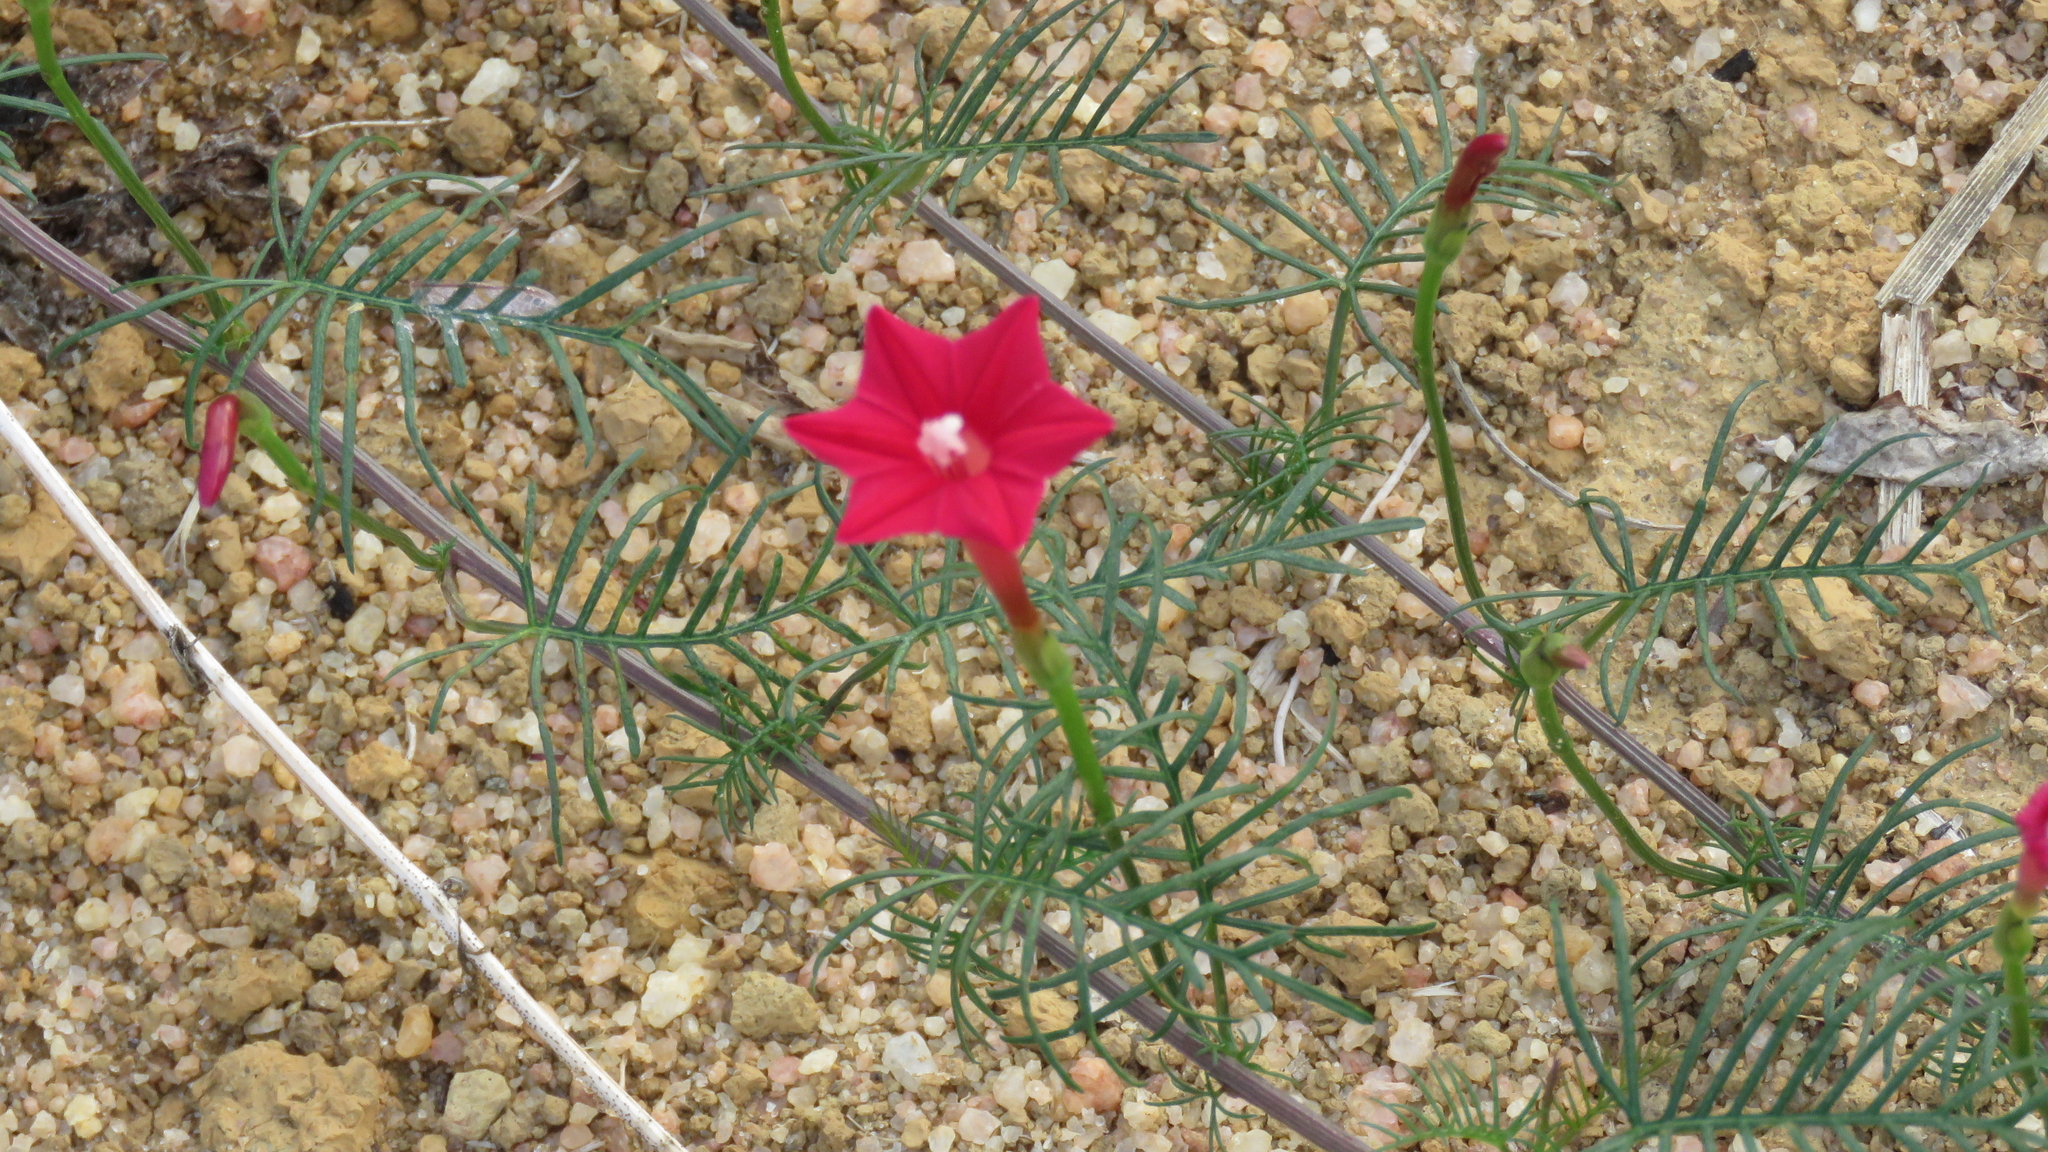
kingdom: Plantae
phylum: Tracheophyta
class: Magnoliopsida
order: Solanales
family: Convolvulaceae
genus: Ipomoea
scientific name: Ipomoea quamoclit
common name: Cypress vine
